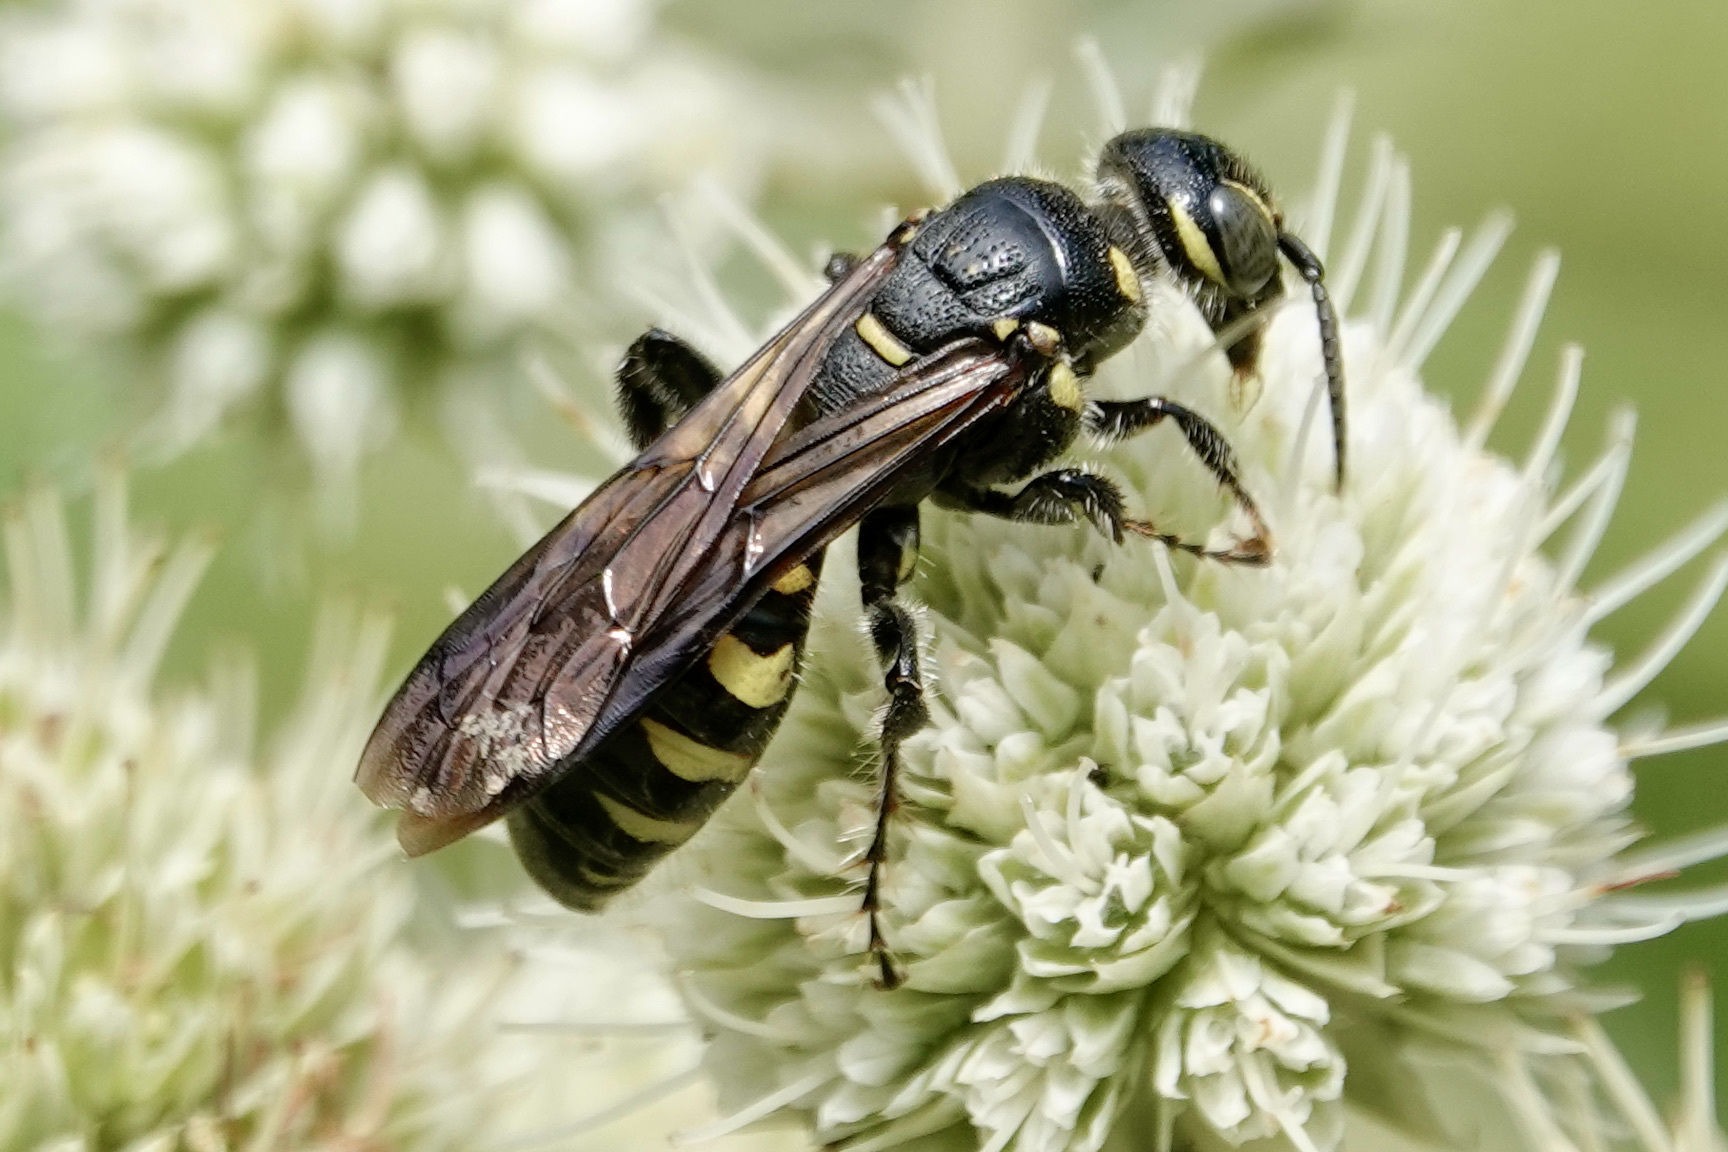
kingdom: Animalia
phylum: Arthropoda
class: Insecta
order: Hymenoptera
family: Tiphiidae
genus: Myzinum
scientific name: Myzinum obscurum
